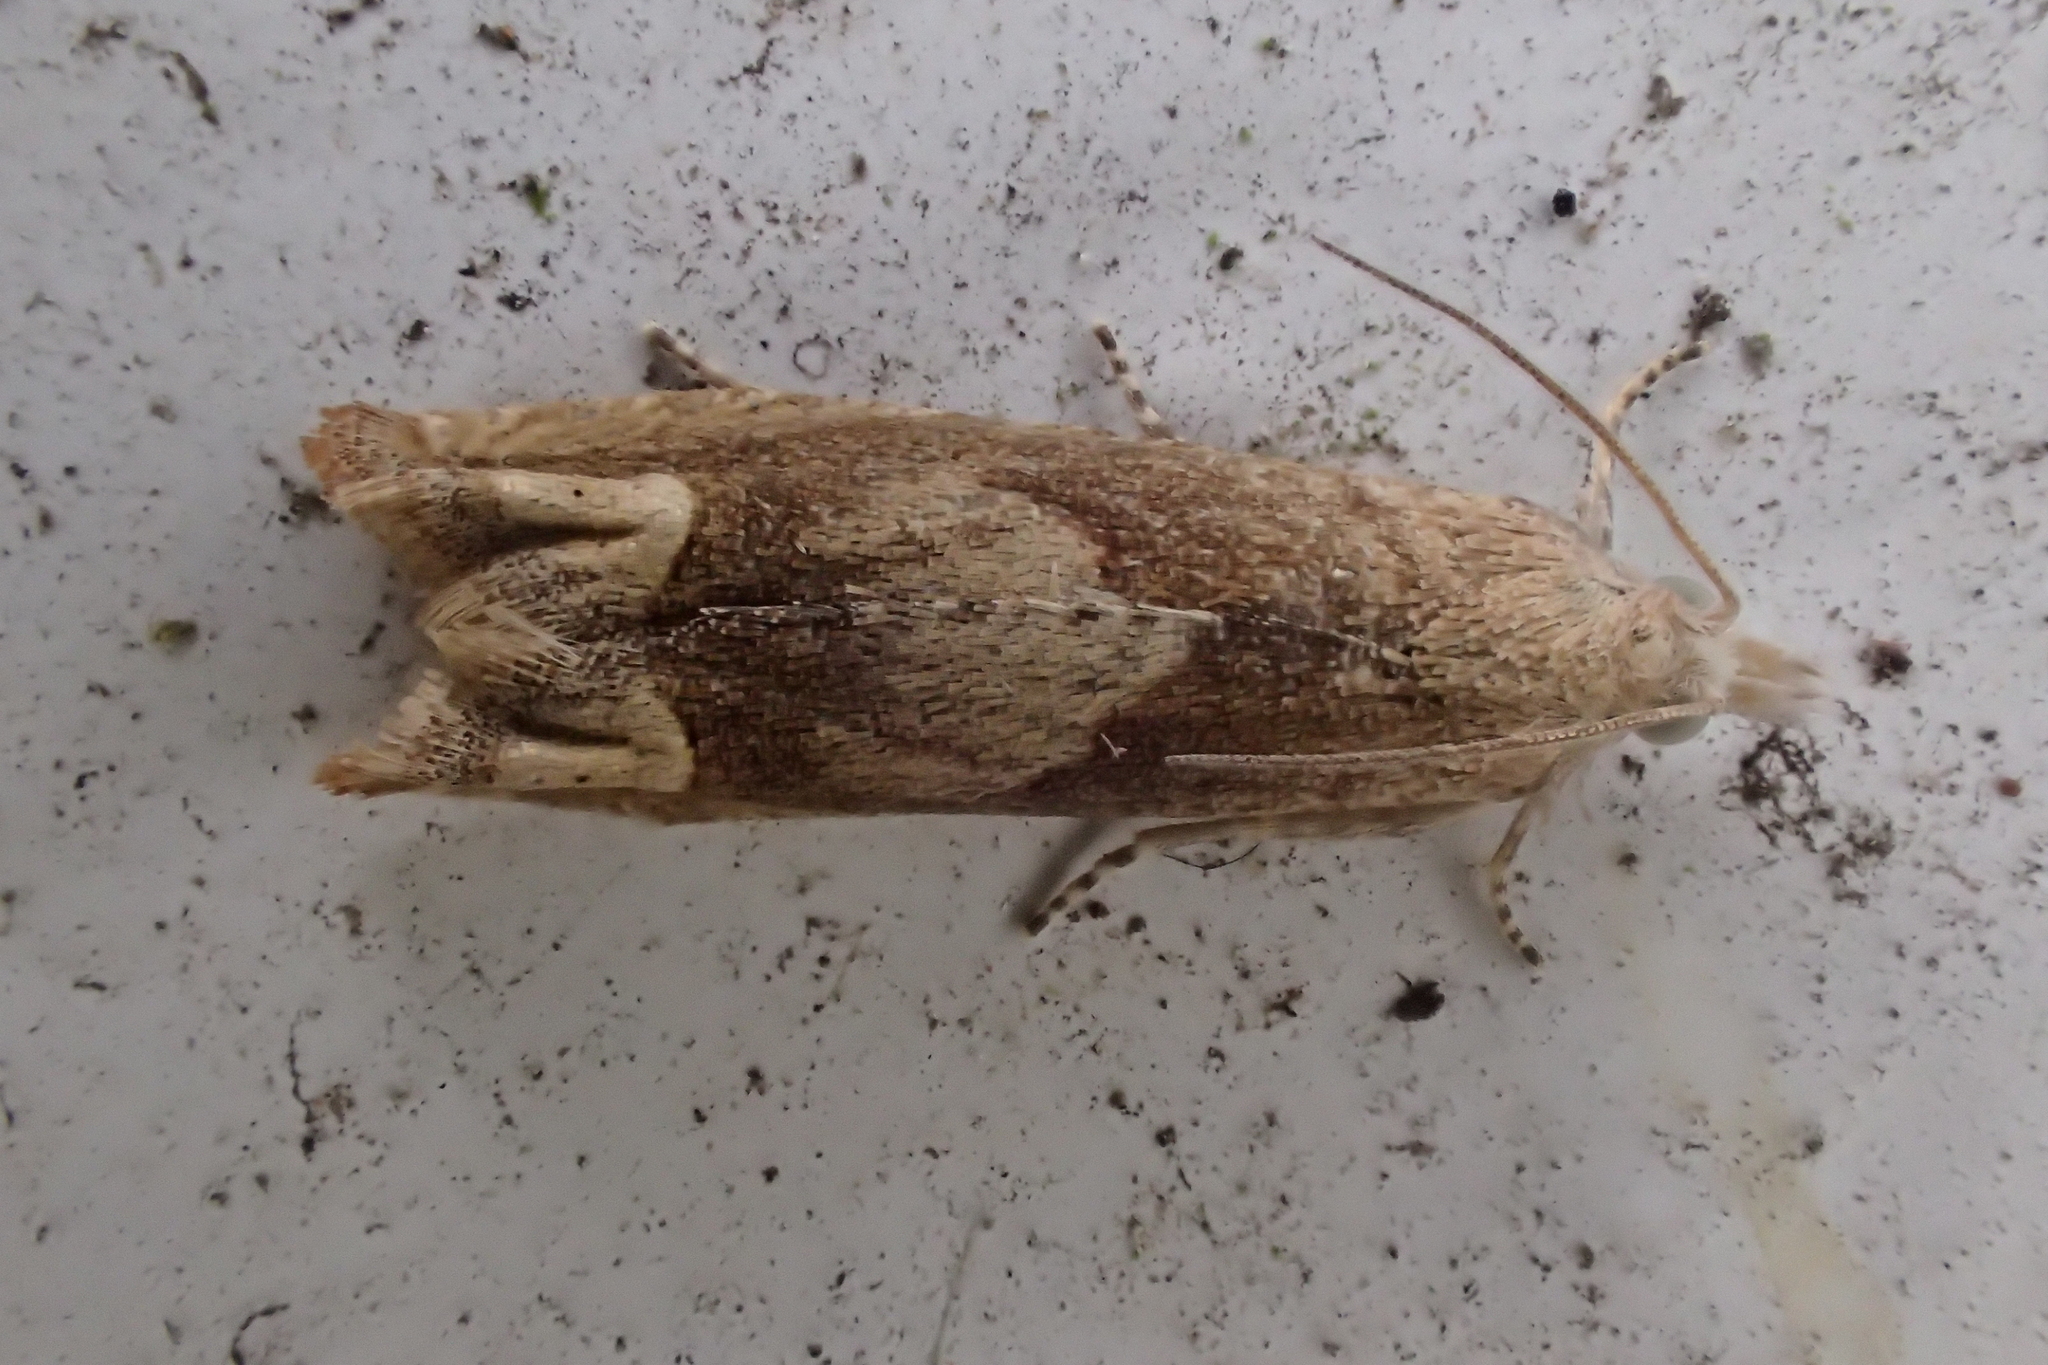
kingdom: Animalia
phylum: Arthropoda
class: Insecta
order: Lepidoptera
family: Tortricidae
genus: Eucosma
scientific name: Eucosma conterminana
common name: Pale lettuce bell
